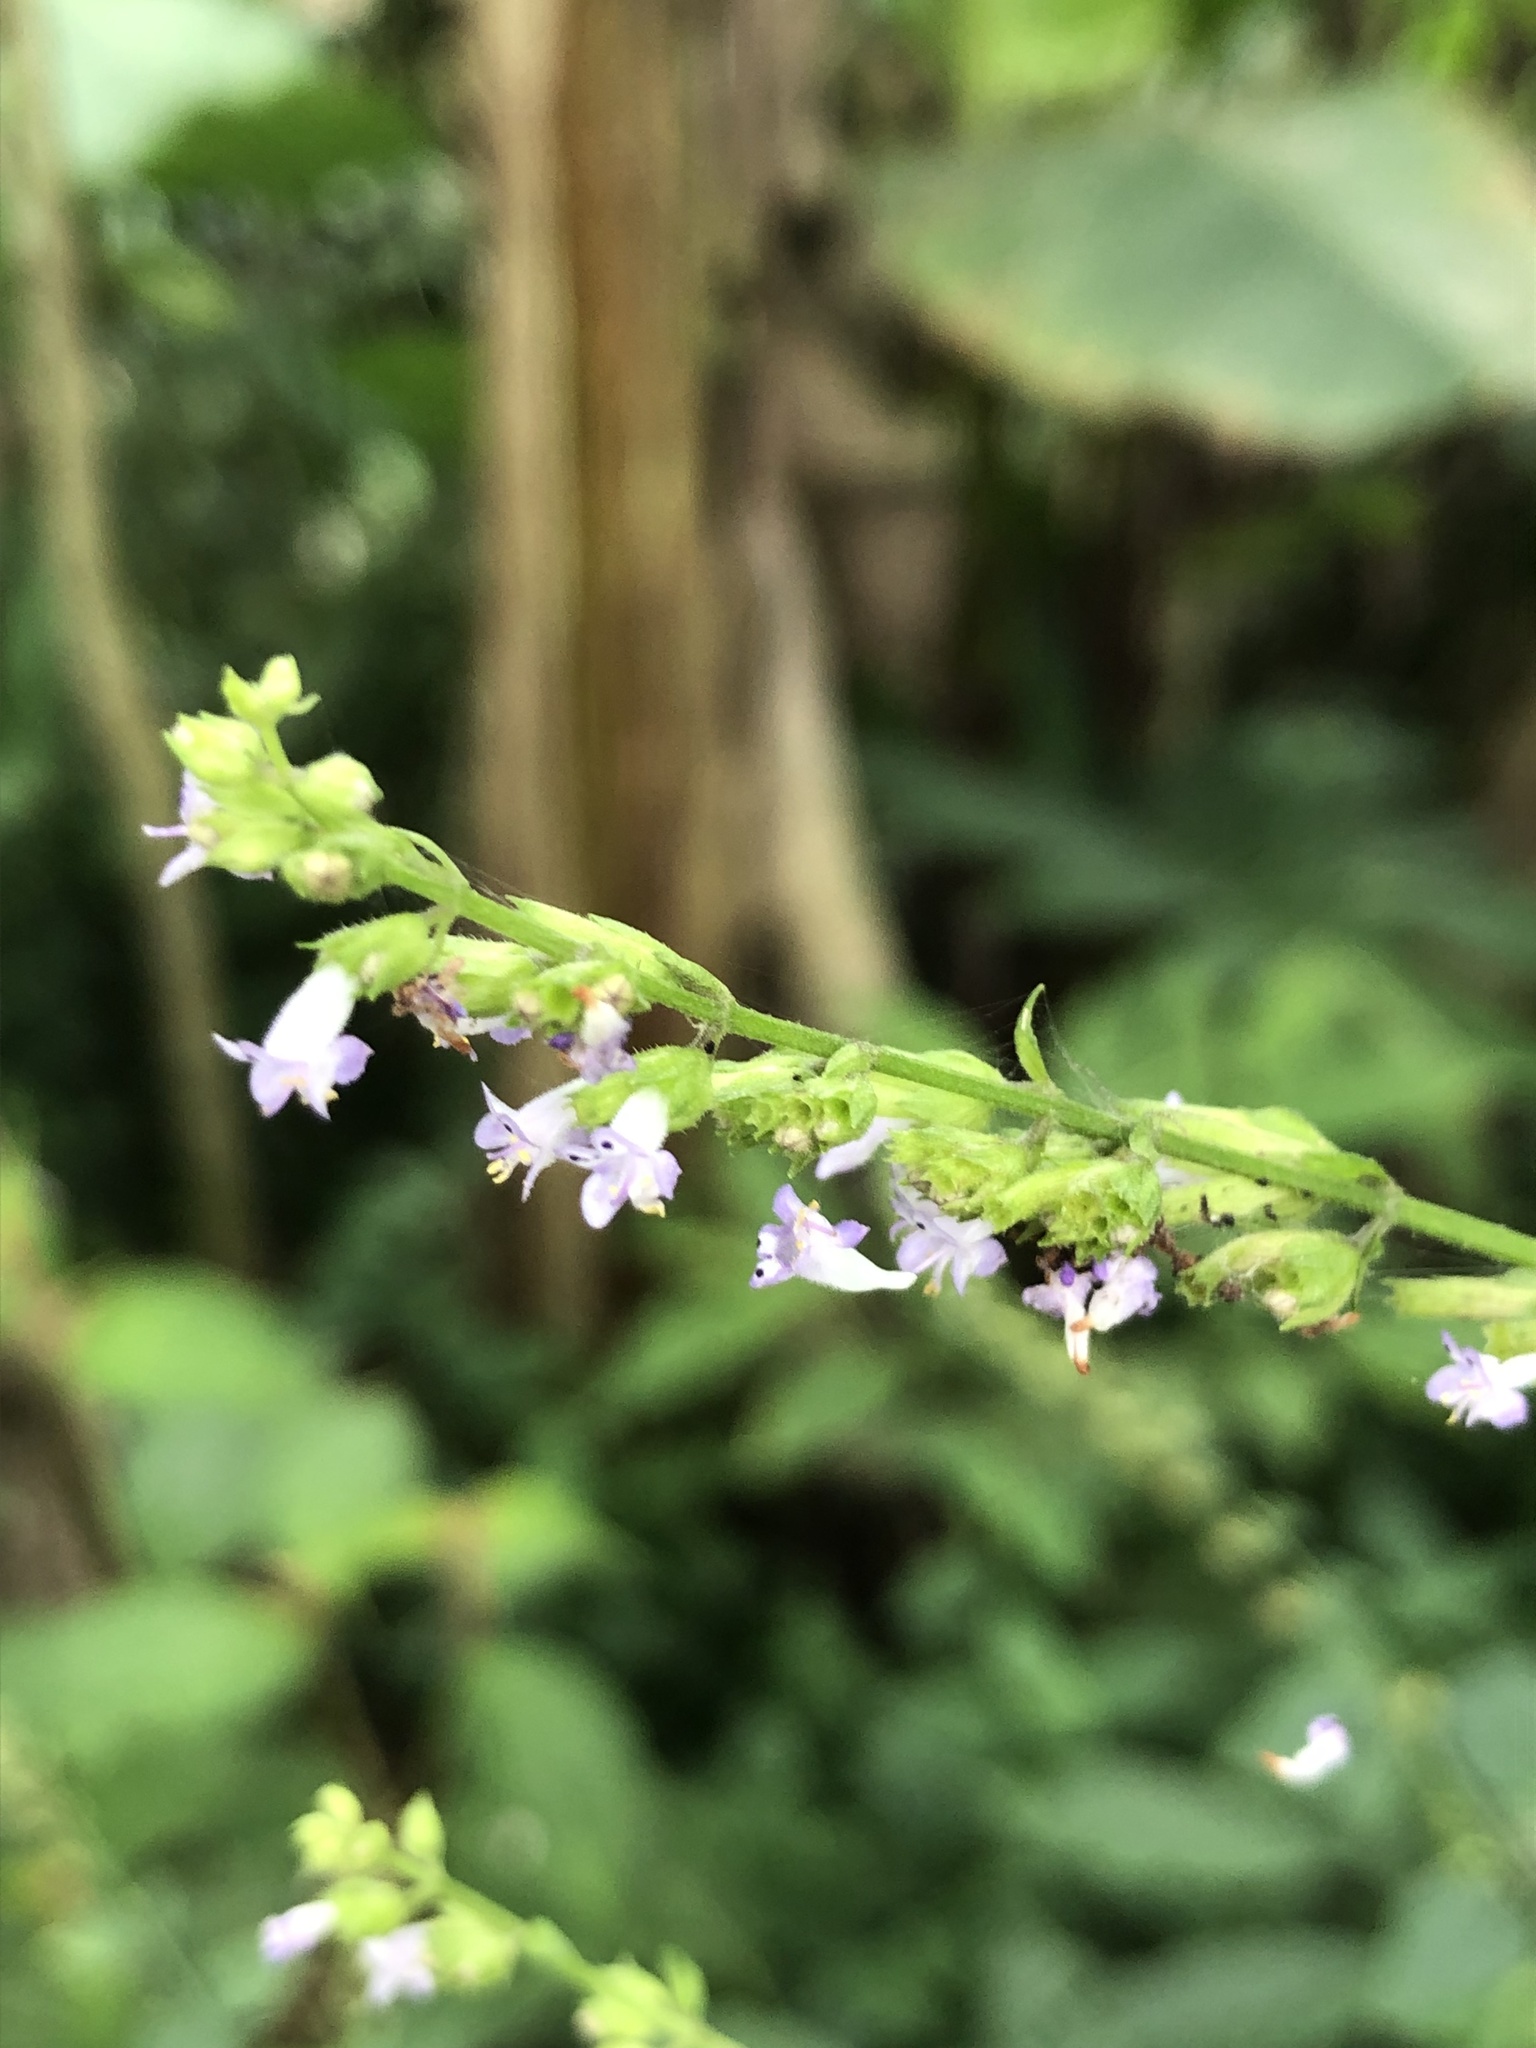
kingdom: Plantae
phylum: Tracheophyta
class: Magnoliopsida
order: Lamiales
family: Lamiaceae
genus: Cantinoa
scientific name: Cantinoa mutabilis
